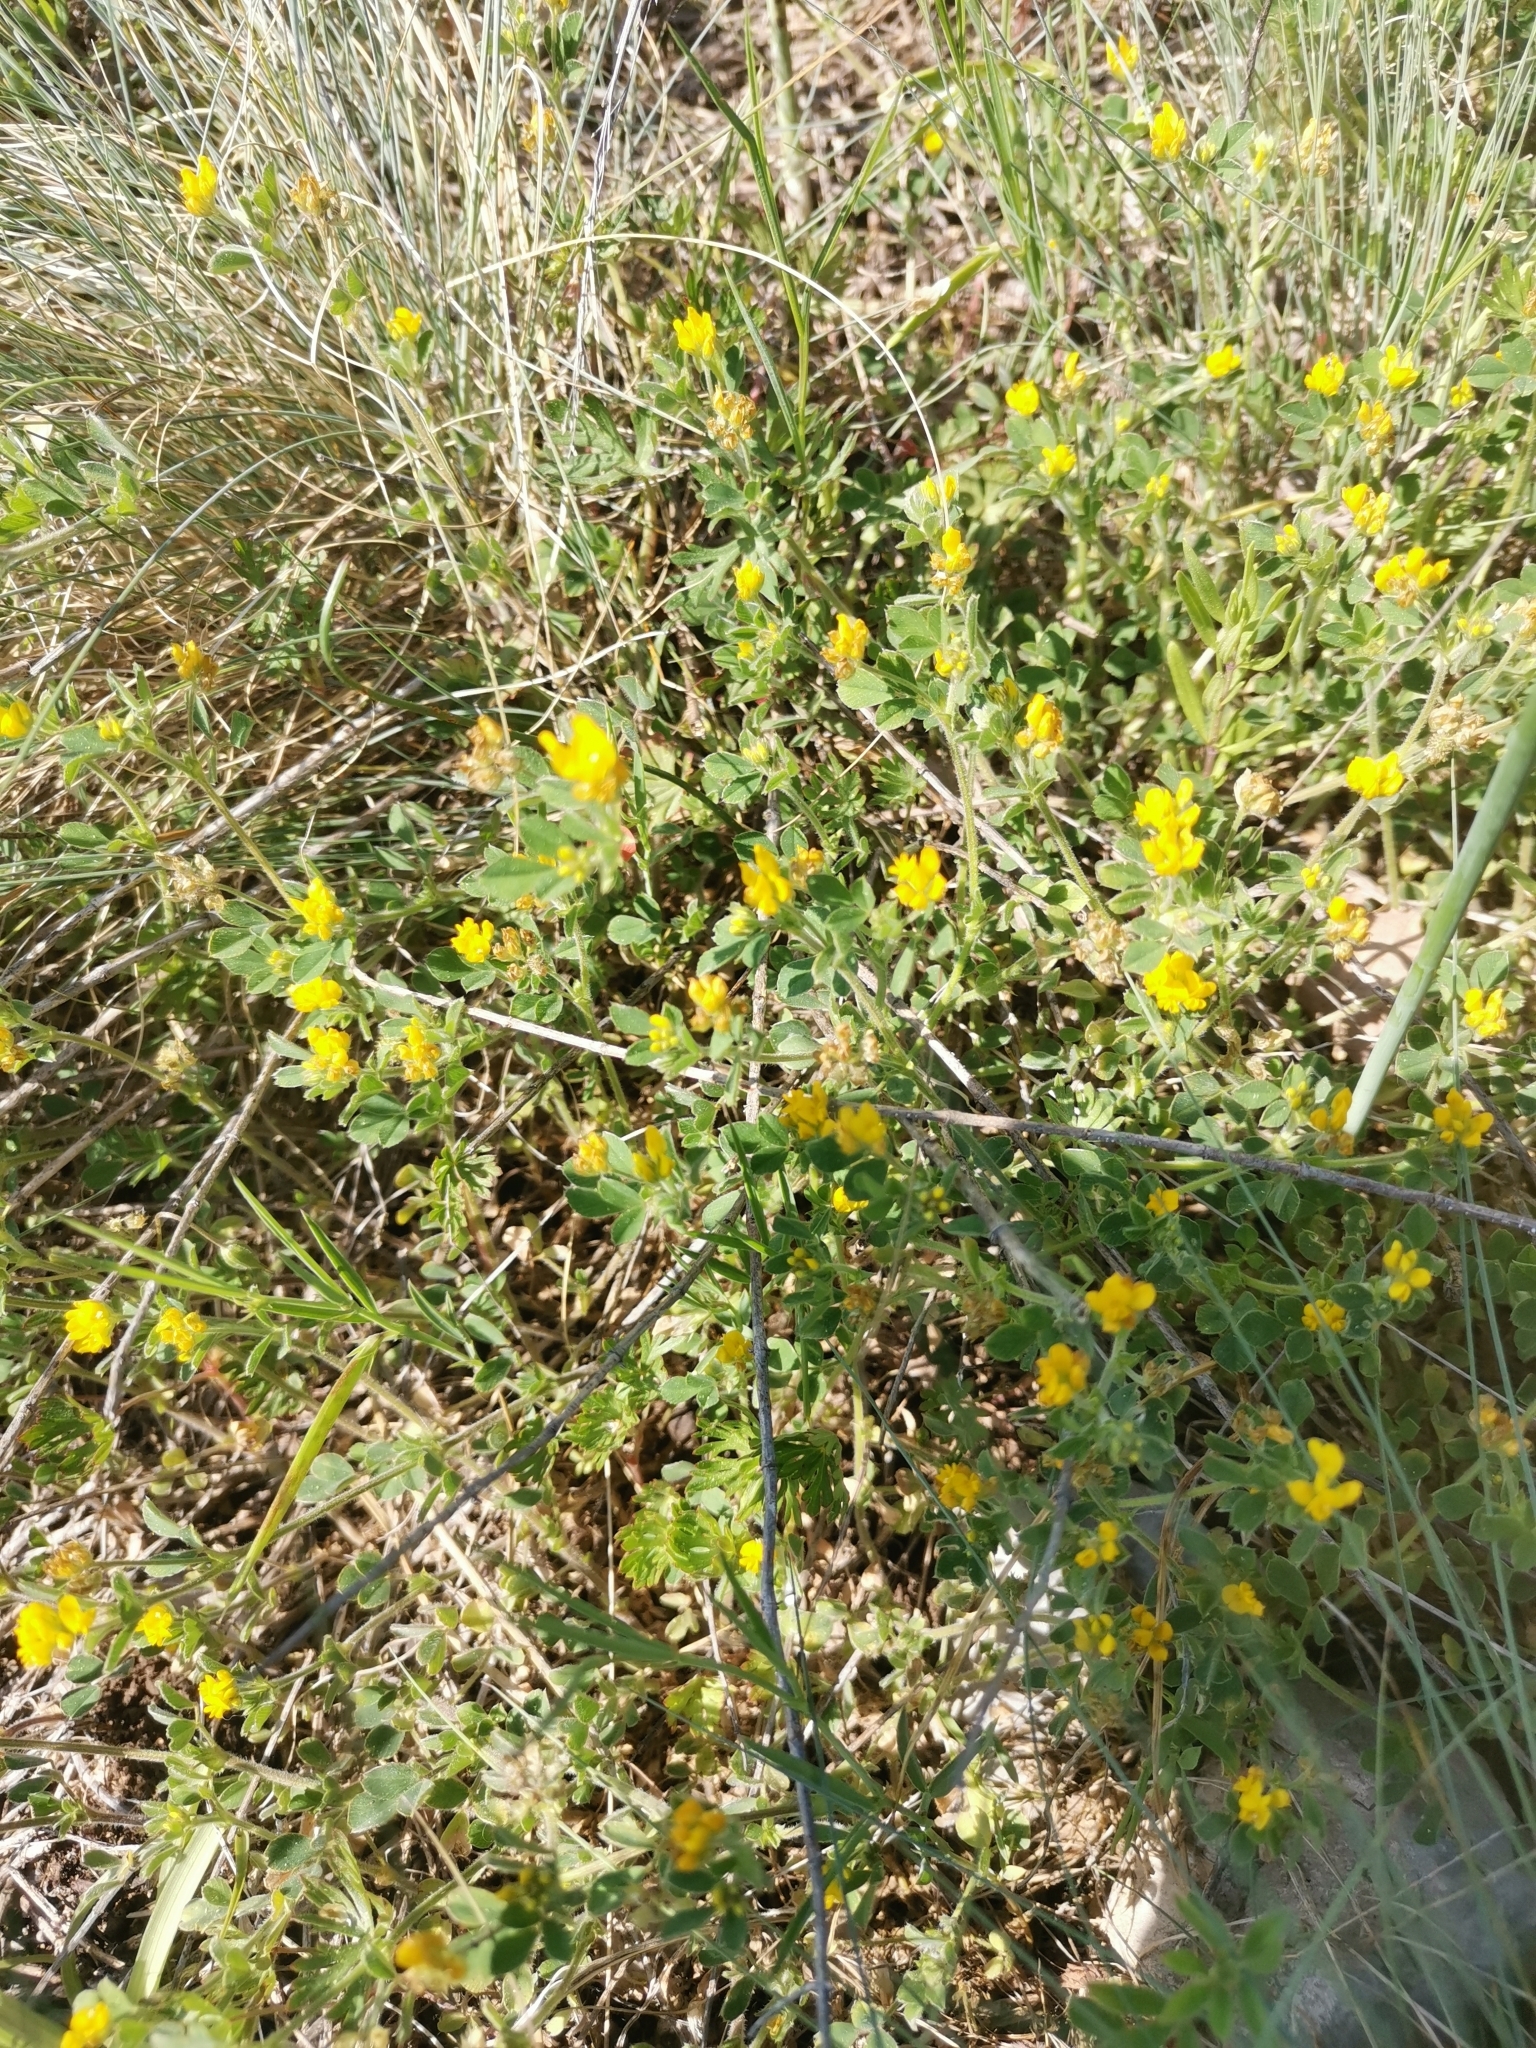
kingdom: Plantae
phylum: Tracheophyta
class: Magnoliopsida
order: Fabales
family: Fabaceae
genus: Medicago
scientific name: Medicago minima
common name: Little bur-clover
